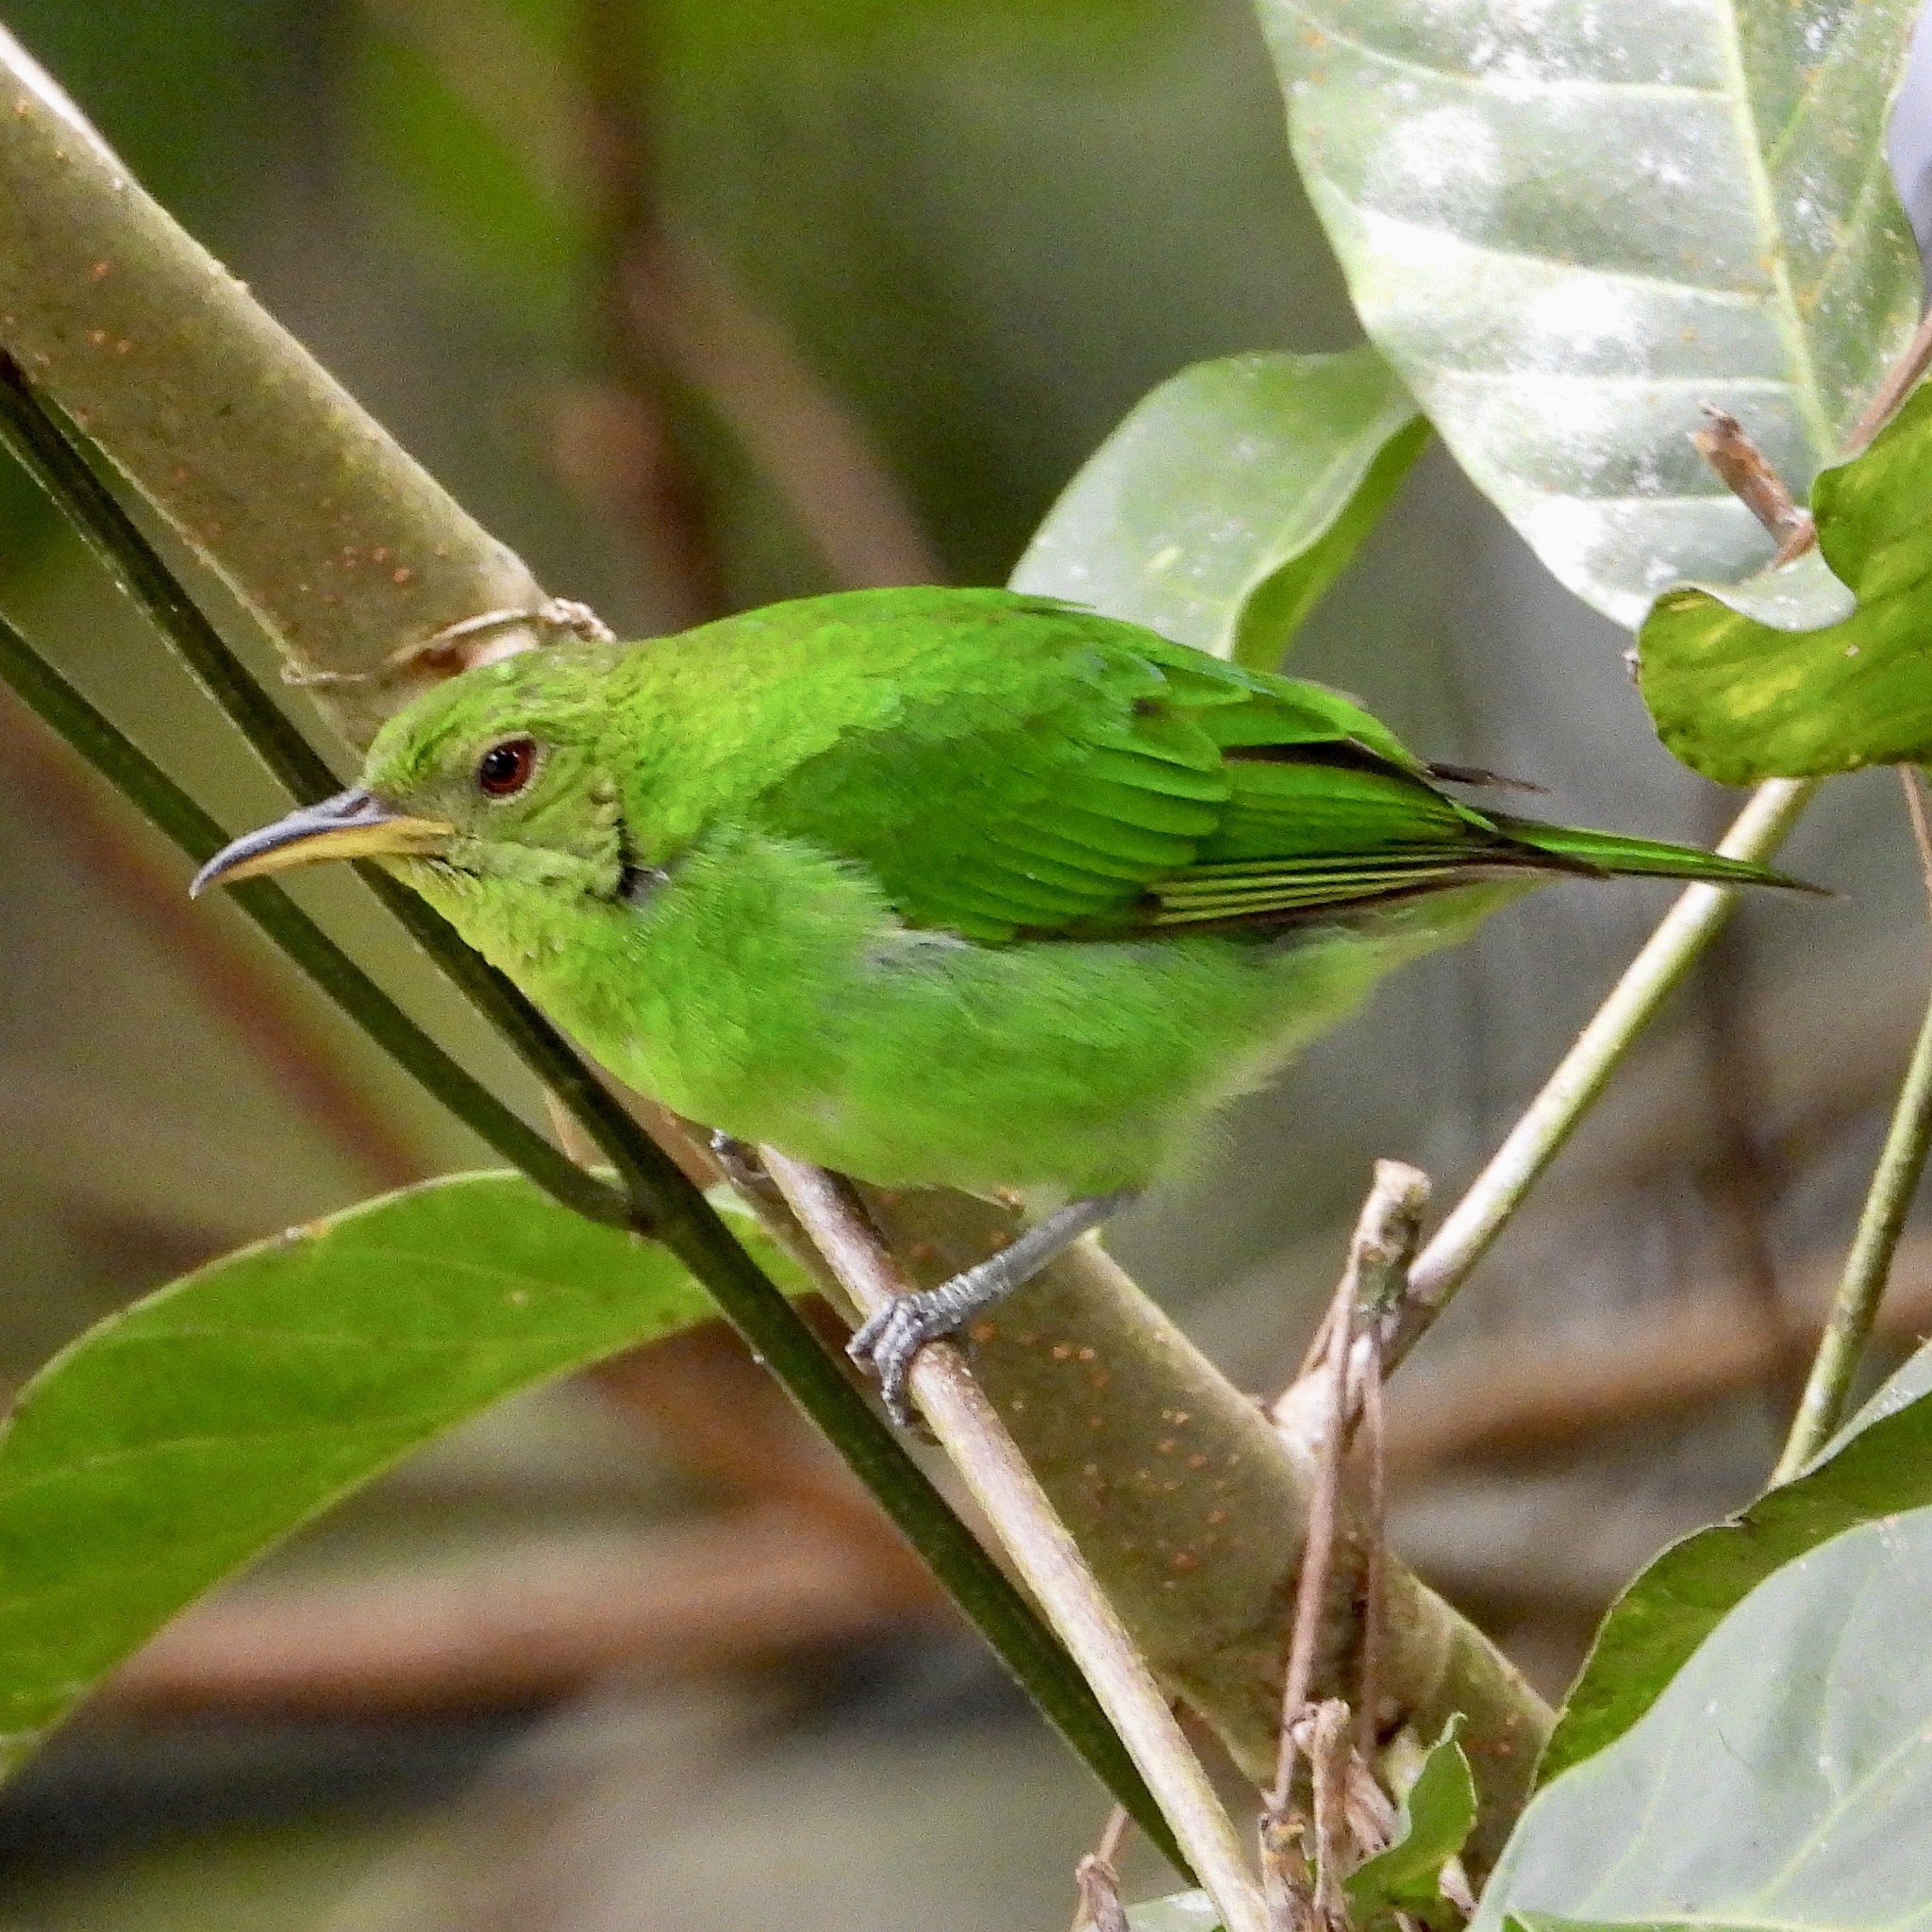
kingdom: Animalia
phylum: Chordata
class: Aves
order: Passeriformes
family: Thraupidae
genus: Chlorophanes
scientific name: Chlorophanes spiza
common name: Green honeycreeper
